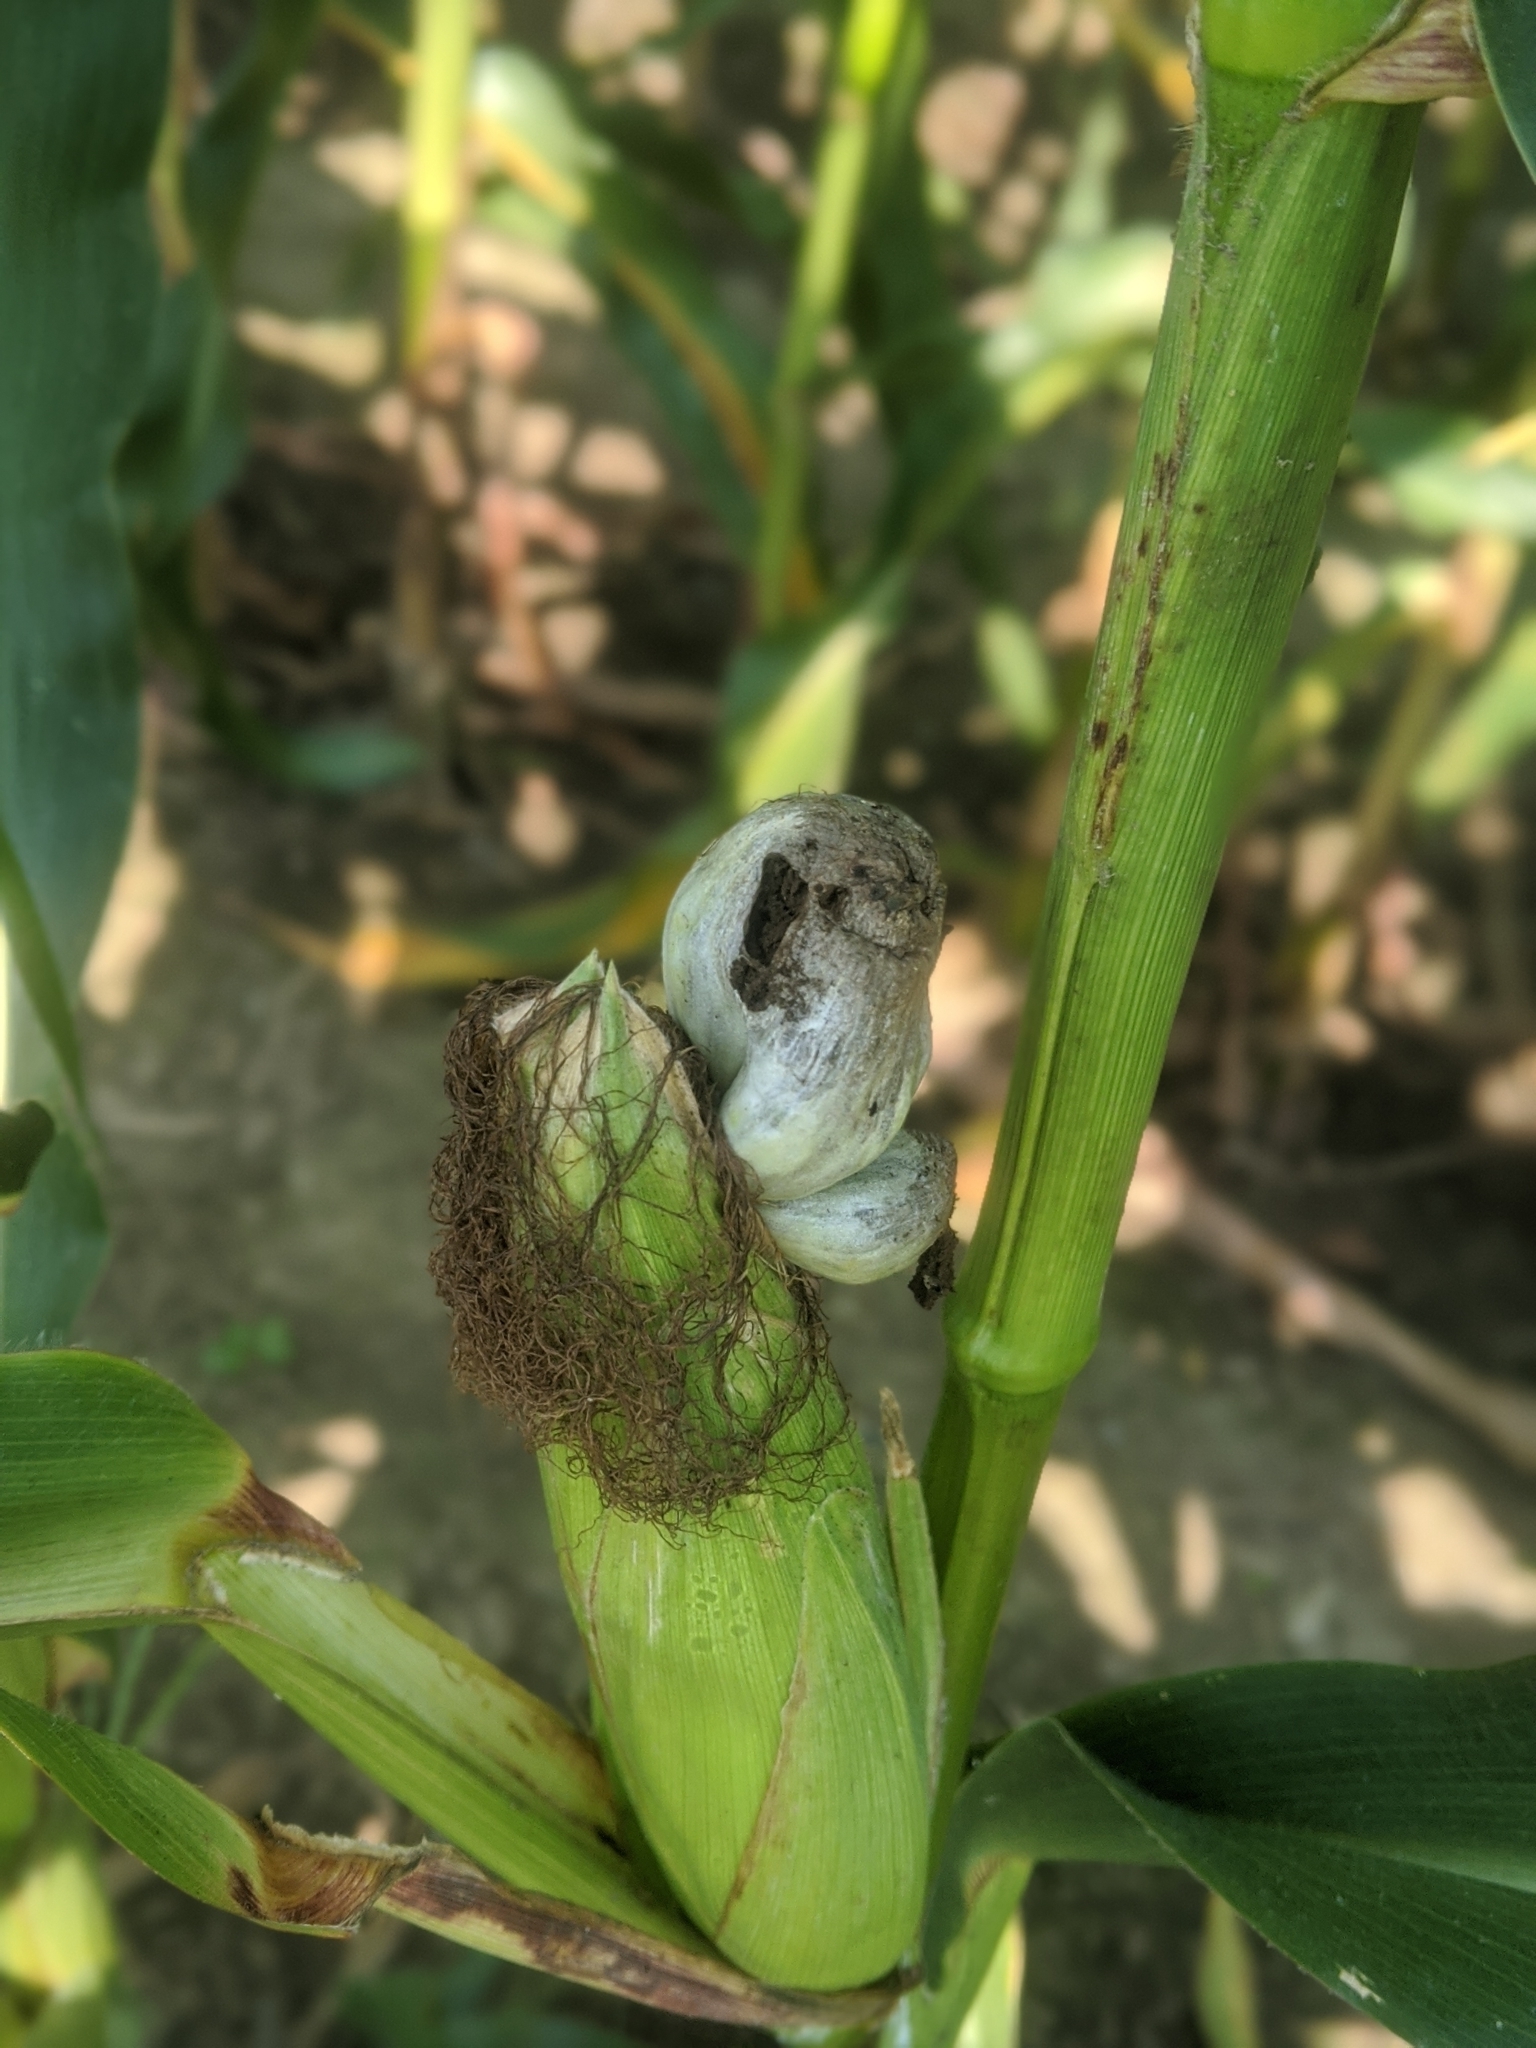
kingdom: Fungi
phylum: Basidiomycota
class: Ustilaginomycetes
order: Ustilaginales
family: Ustilaginaceae
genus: Mycosarcoma
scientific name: Mycosarcoma maydis
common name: Corn smut
